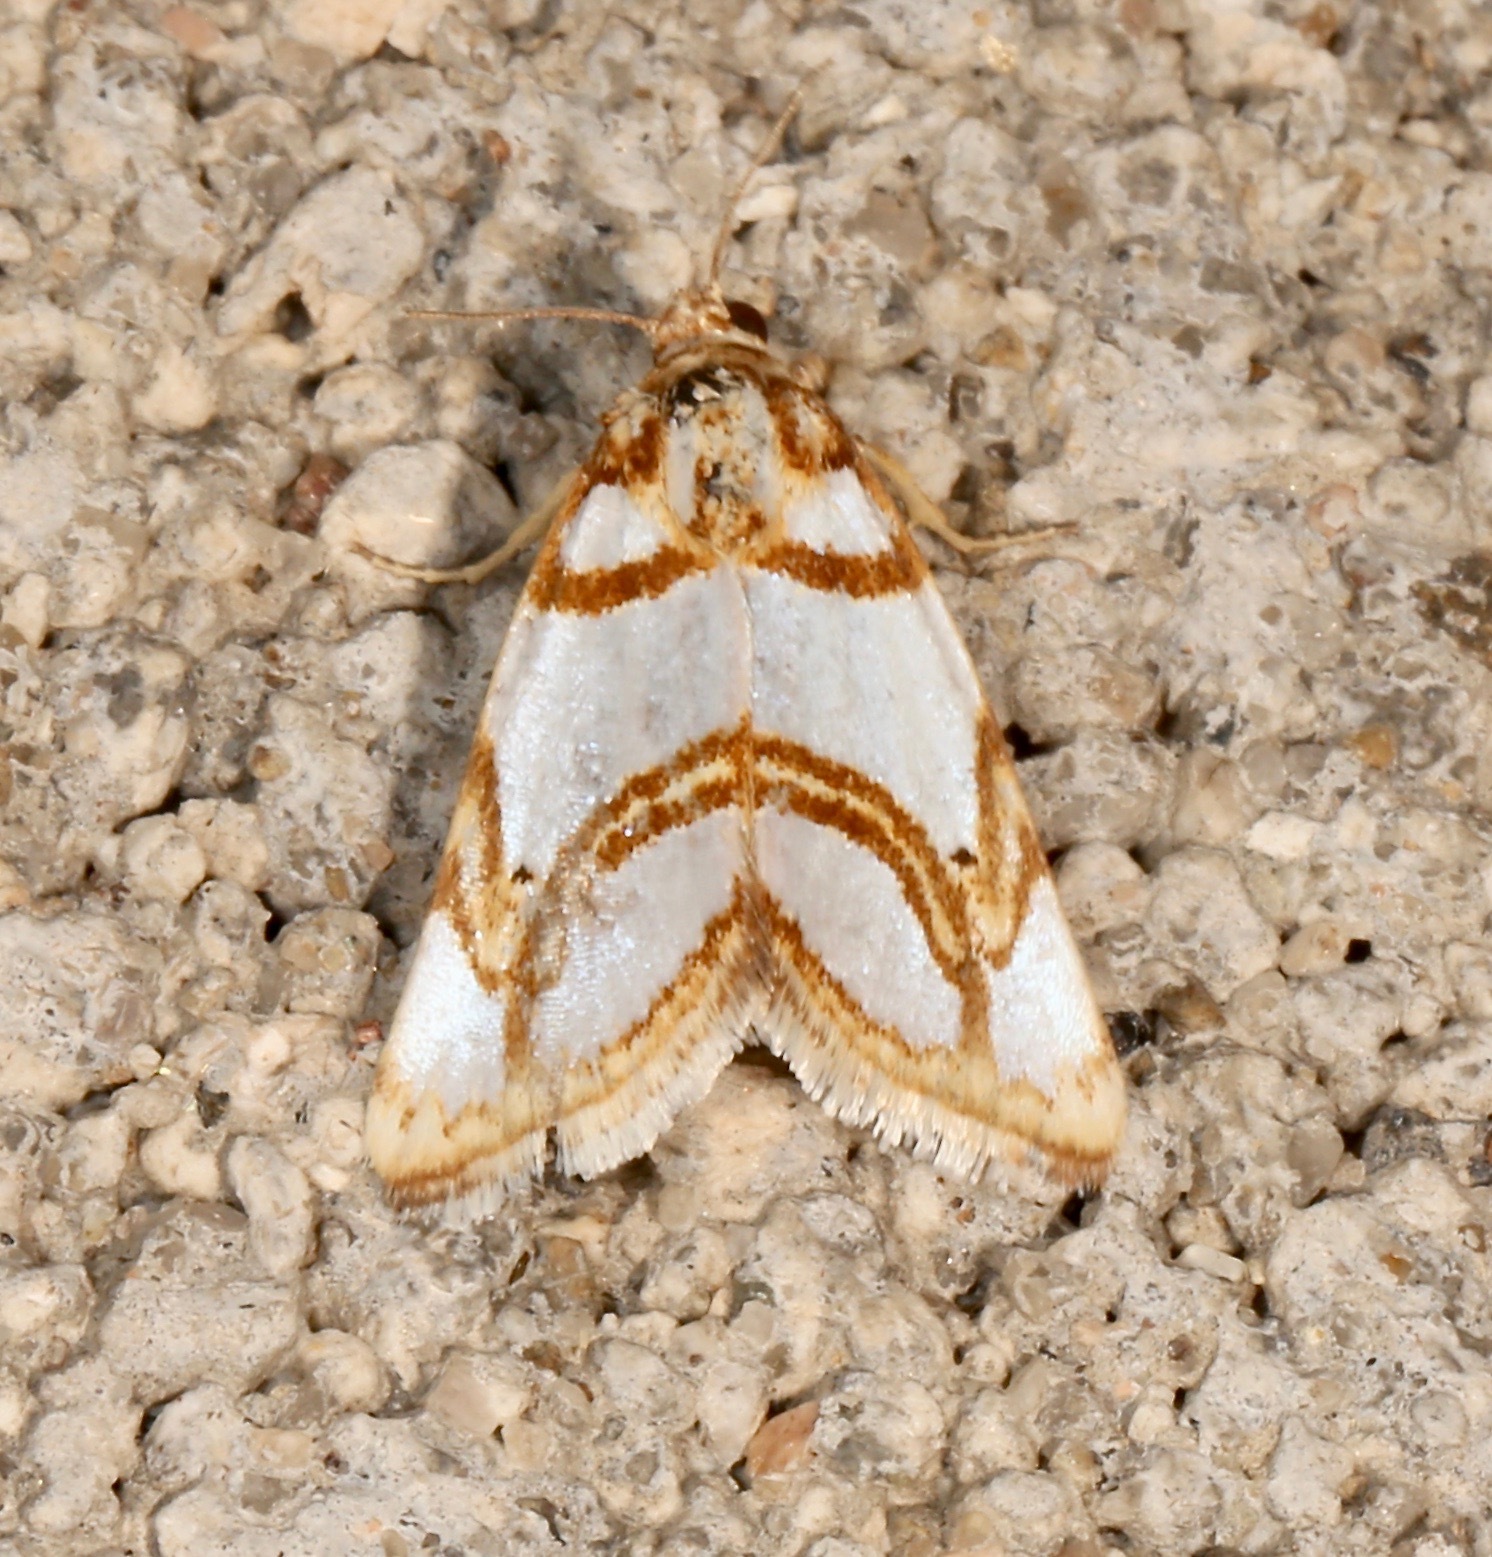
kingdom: Animalia
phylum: Arthropoda
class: Insecta
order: Lepidoptera
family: Noctuidae
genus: Argentostiria
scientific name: Argentostiria koebelei
